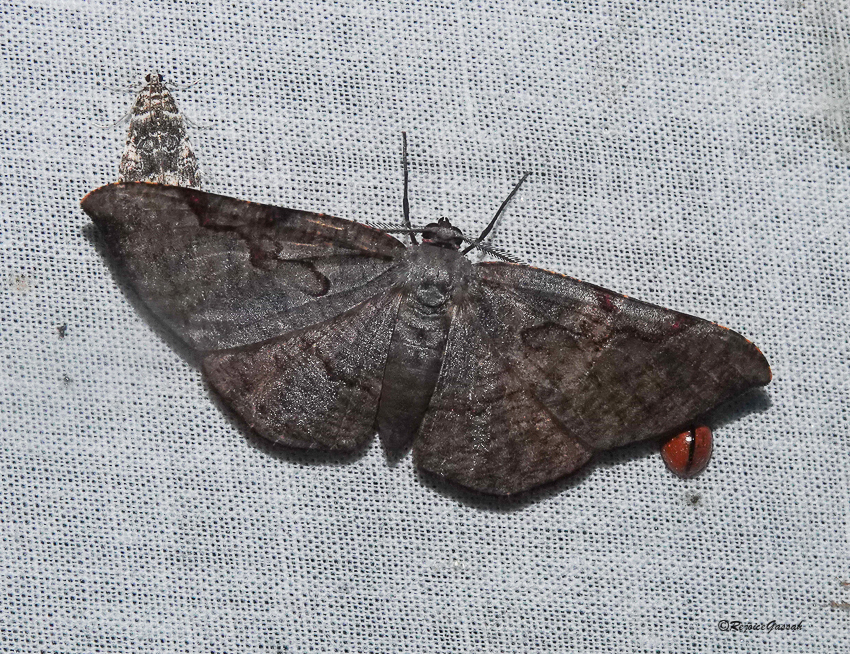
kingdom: Animalia
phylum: Arthropoda
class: Insecta
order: Lepidoptera
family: Geometridae
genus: Hypochrosis
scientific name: Hypochrosis pyrrhophaeata
